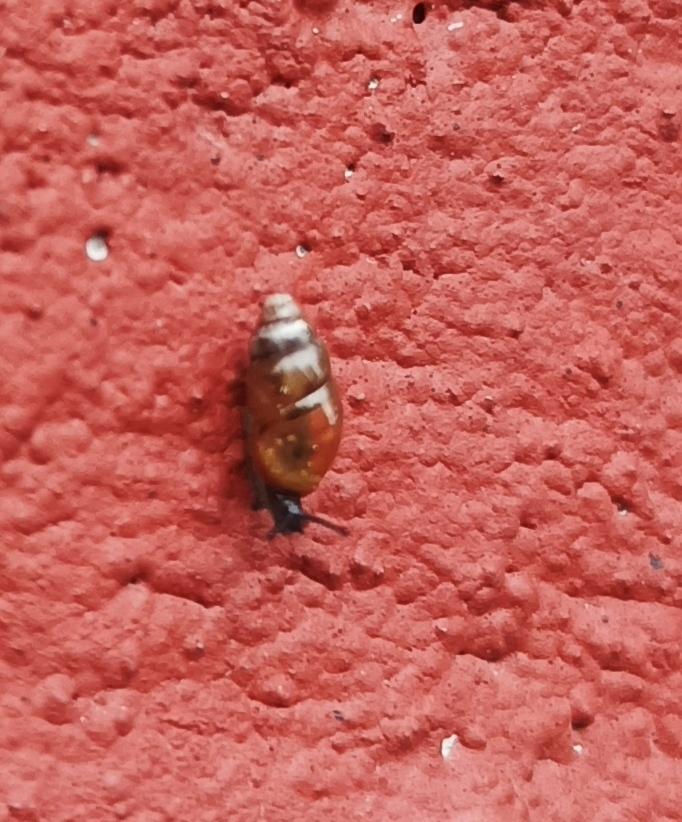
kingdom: Animalia
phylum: Mollusca
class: Gastropoda
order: Stylommatophora
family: Cochlicopidae
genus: Cochlicopa
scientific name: Cochlicopa lubrica
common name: Glossy pillar snail
